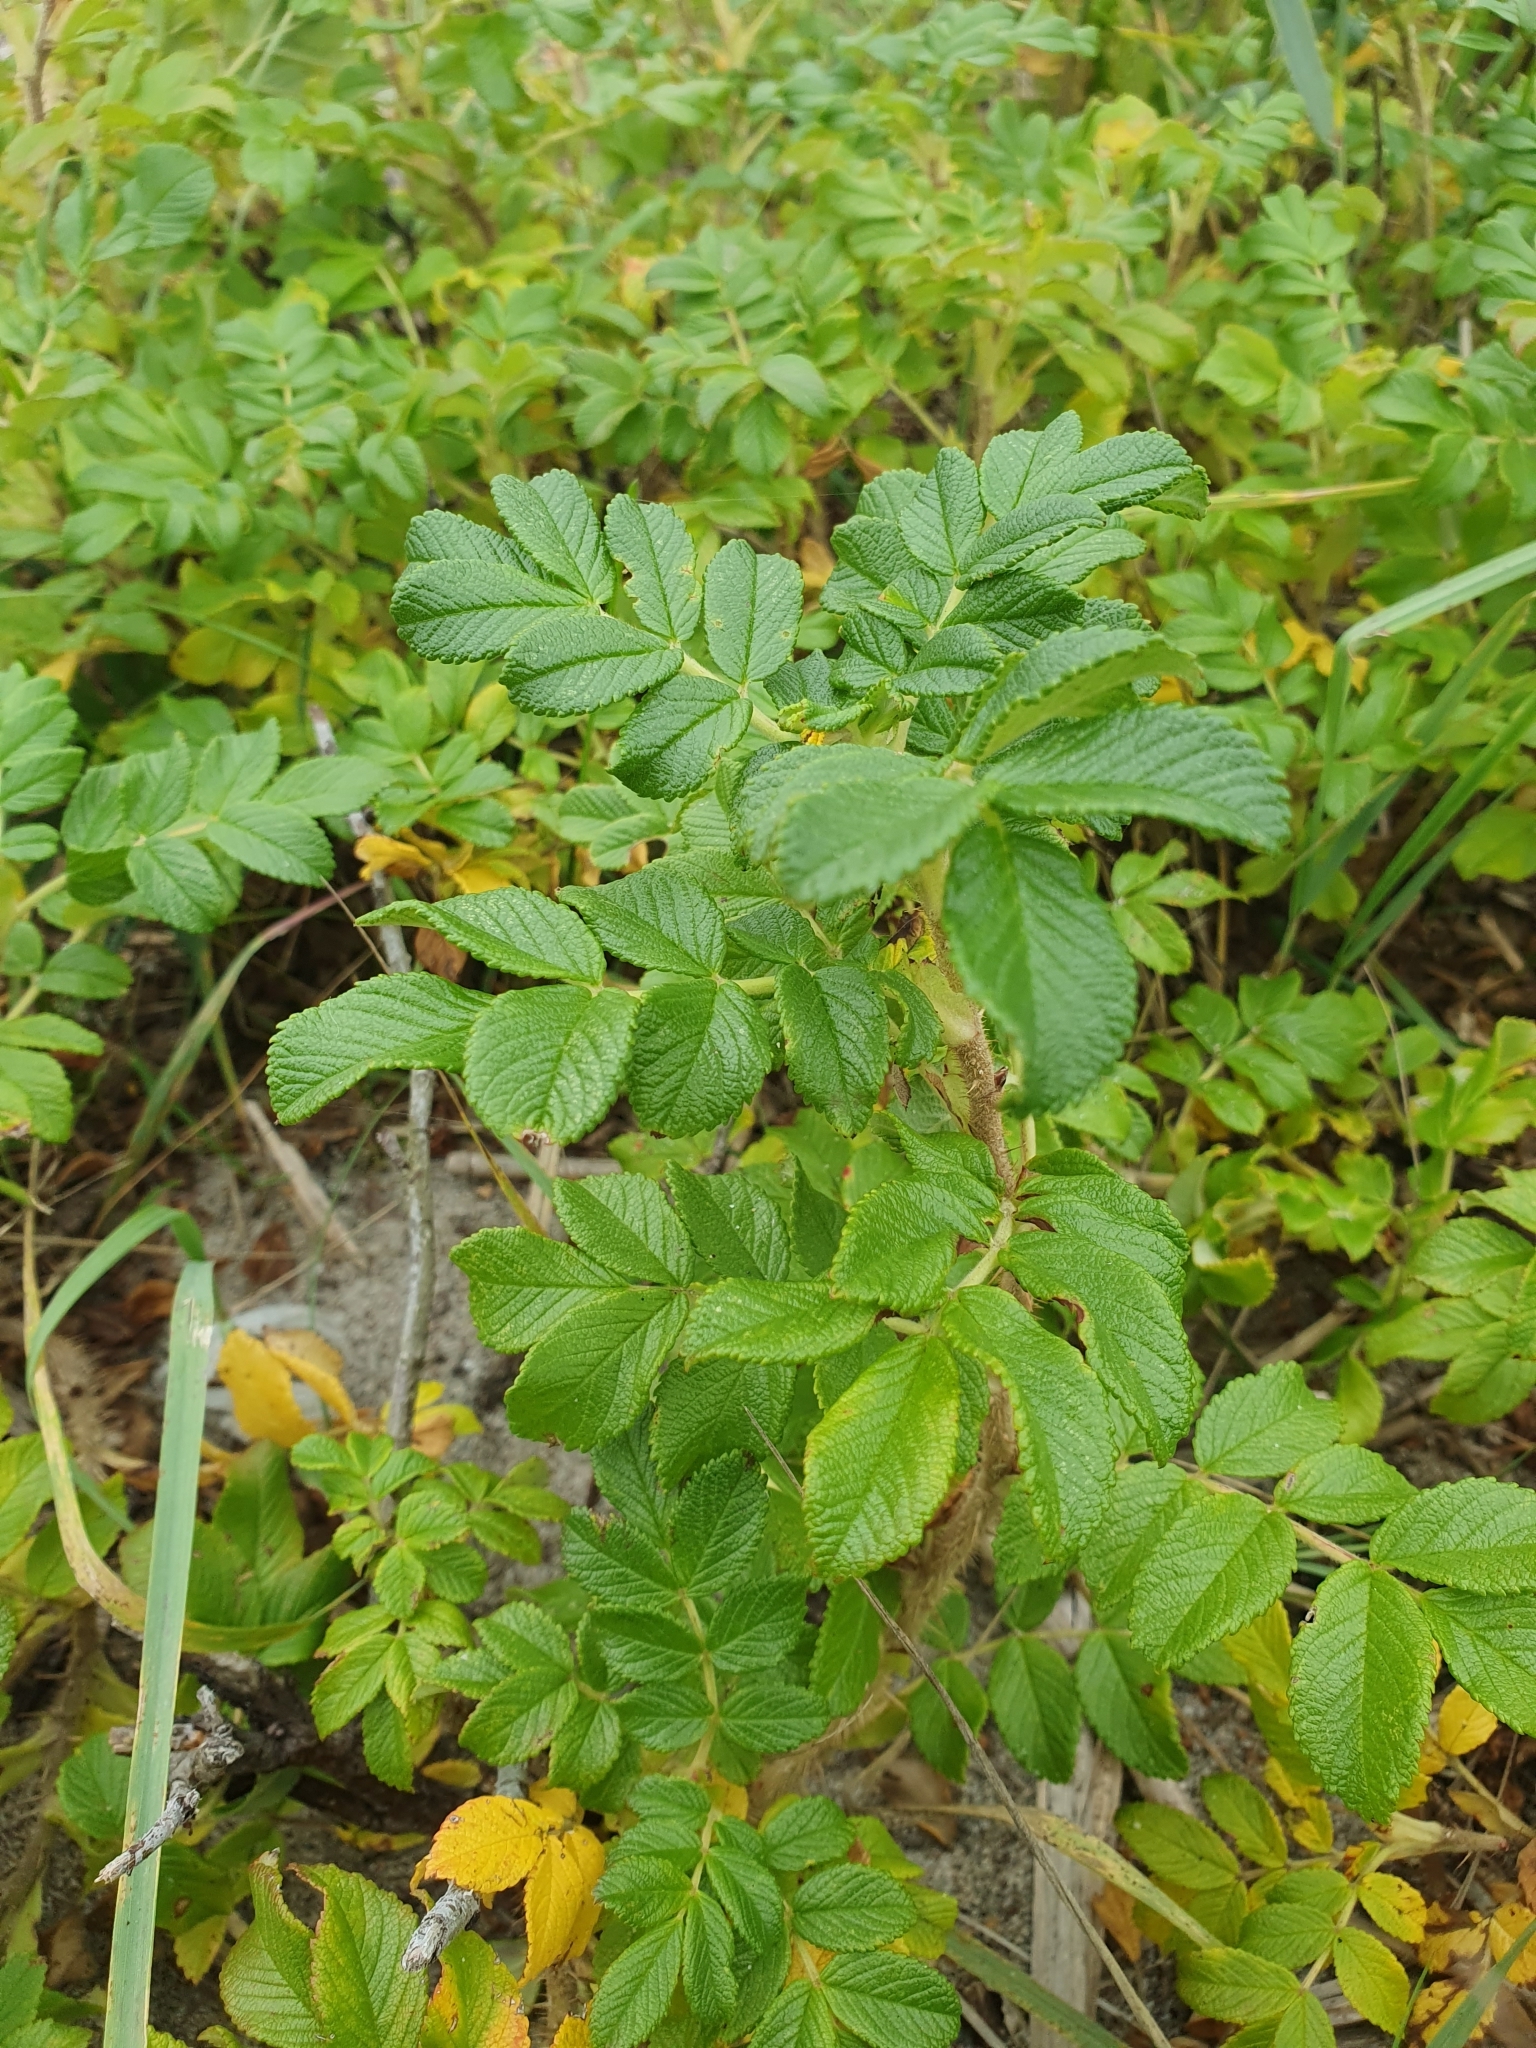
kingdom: Plantae
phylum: Tracheophyta
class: Magnoliopsida
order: Rosales
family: Rosaceae
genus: Rosa
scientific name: Rosa rugosa
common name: Japanese rose
